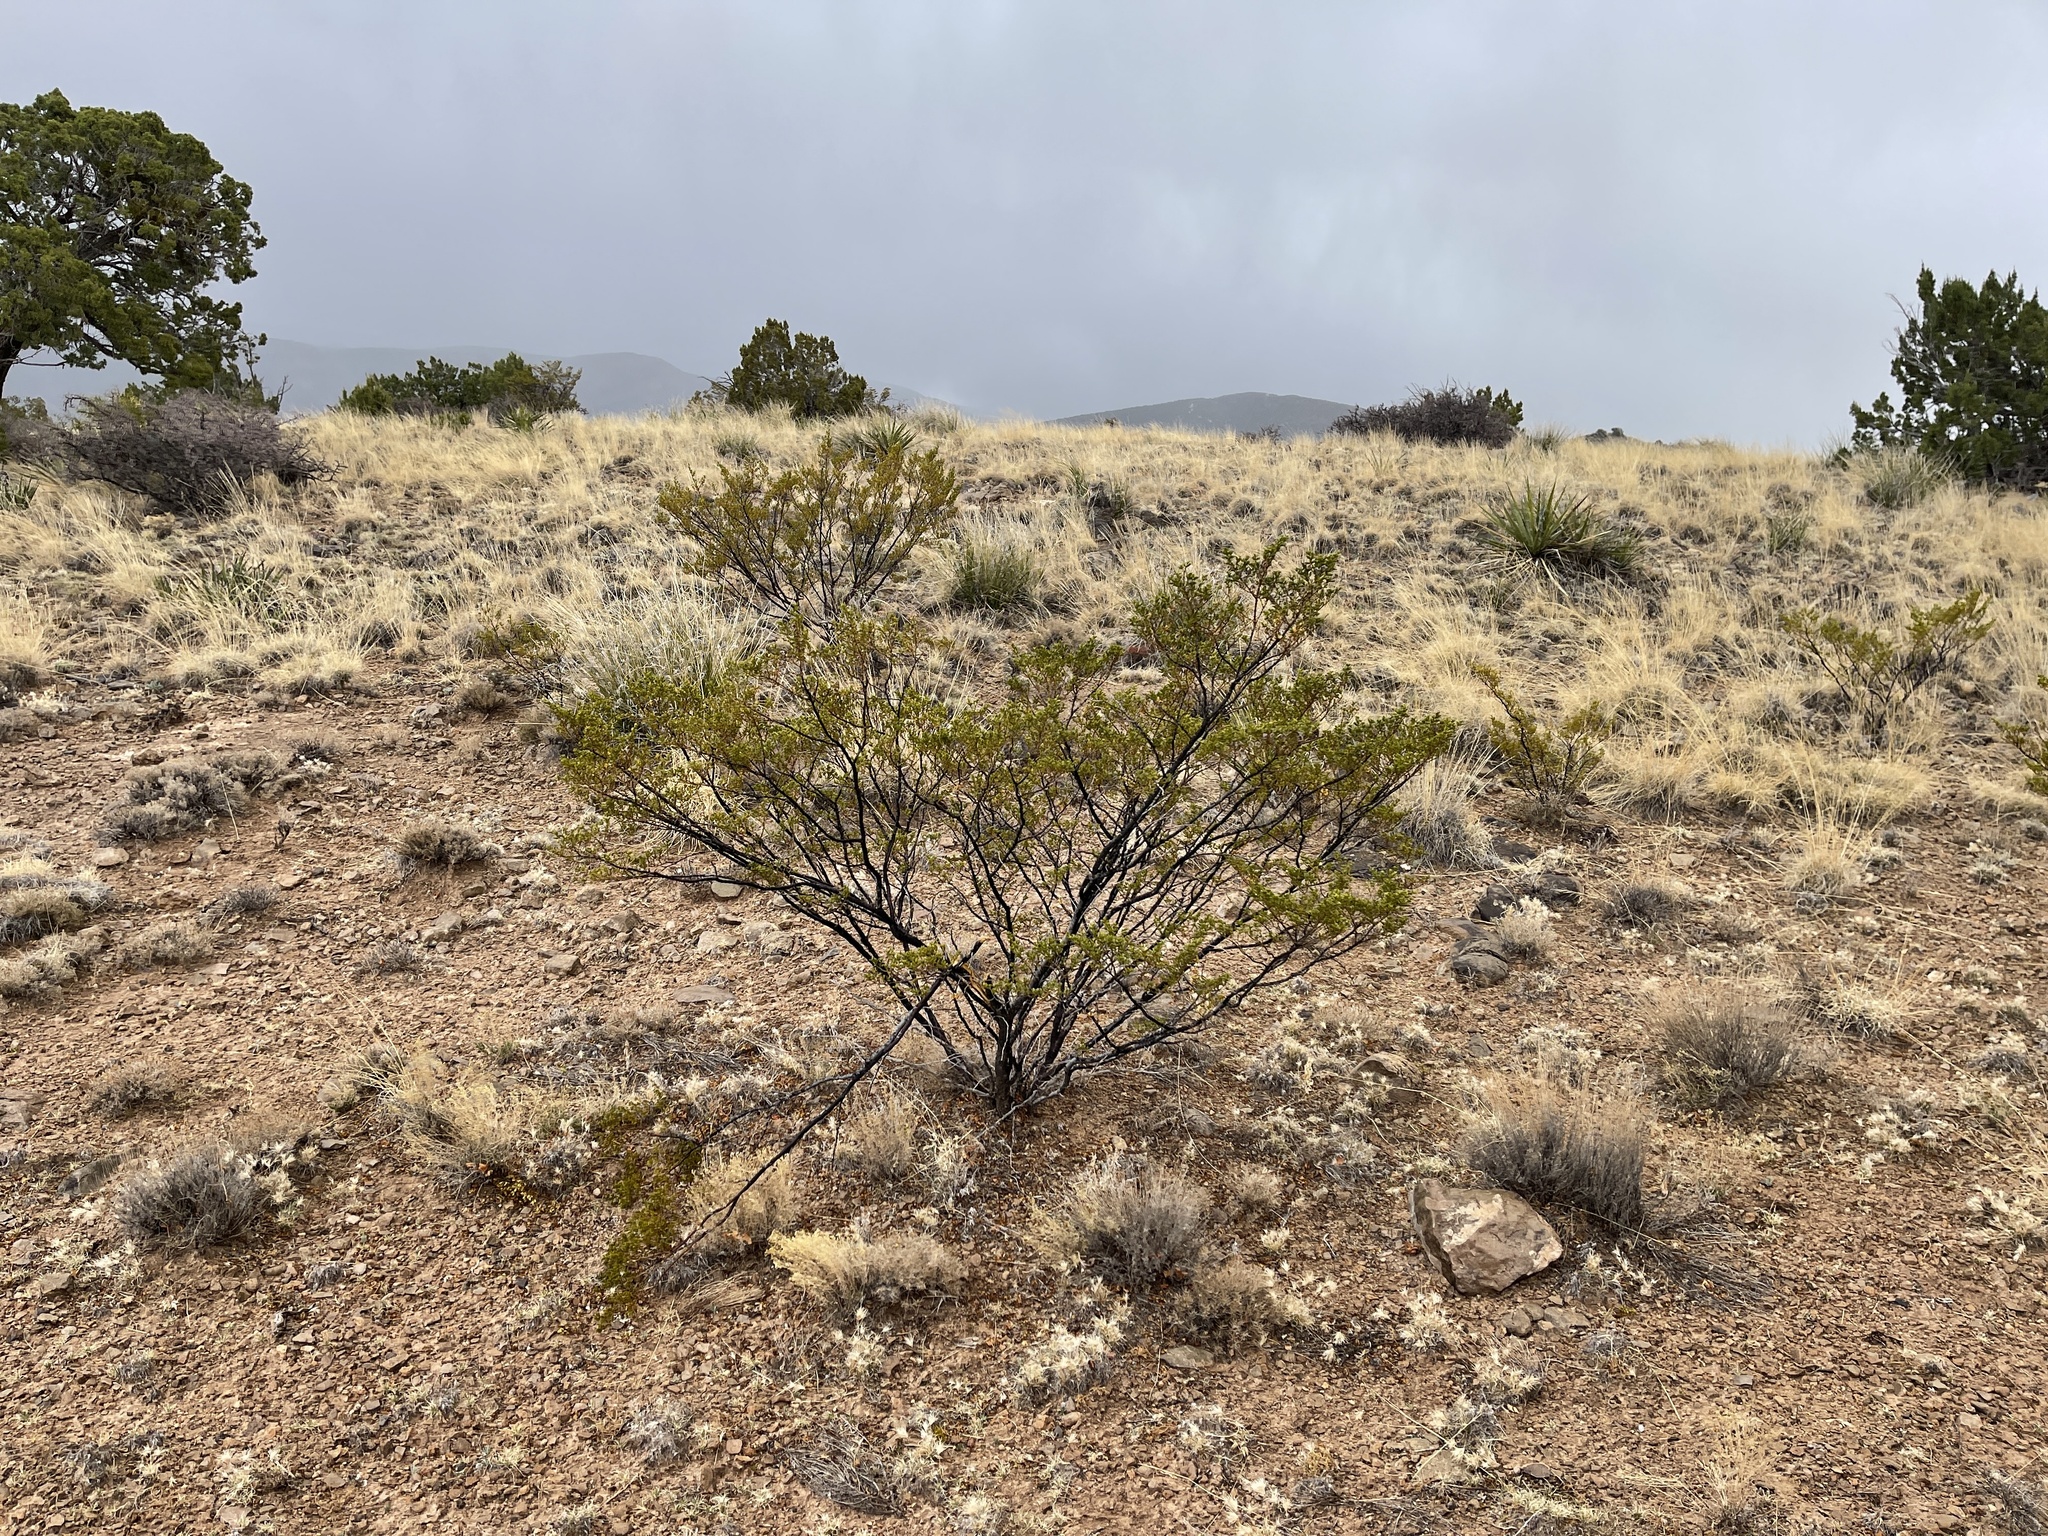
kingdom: Plantae
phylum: Tracheophyta
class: Magnoliopsida
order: Zygophyllales
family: Zygophyllaceae
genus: Larrea
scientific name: Larrea tridentata
